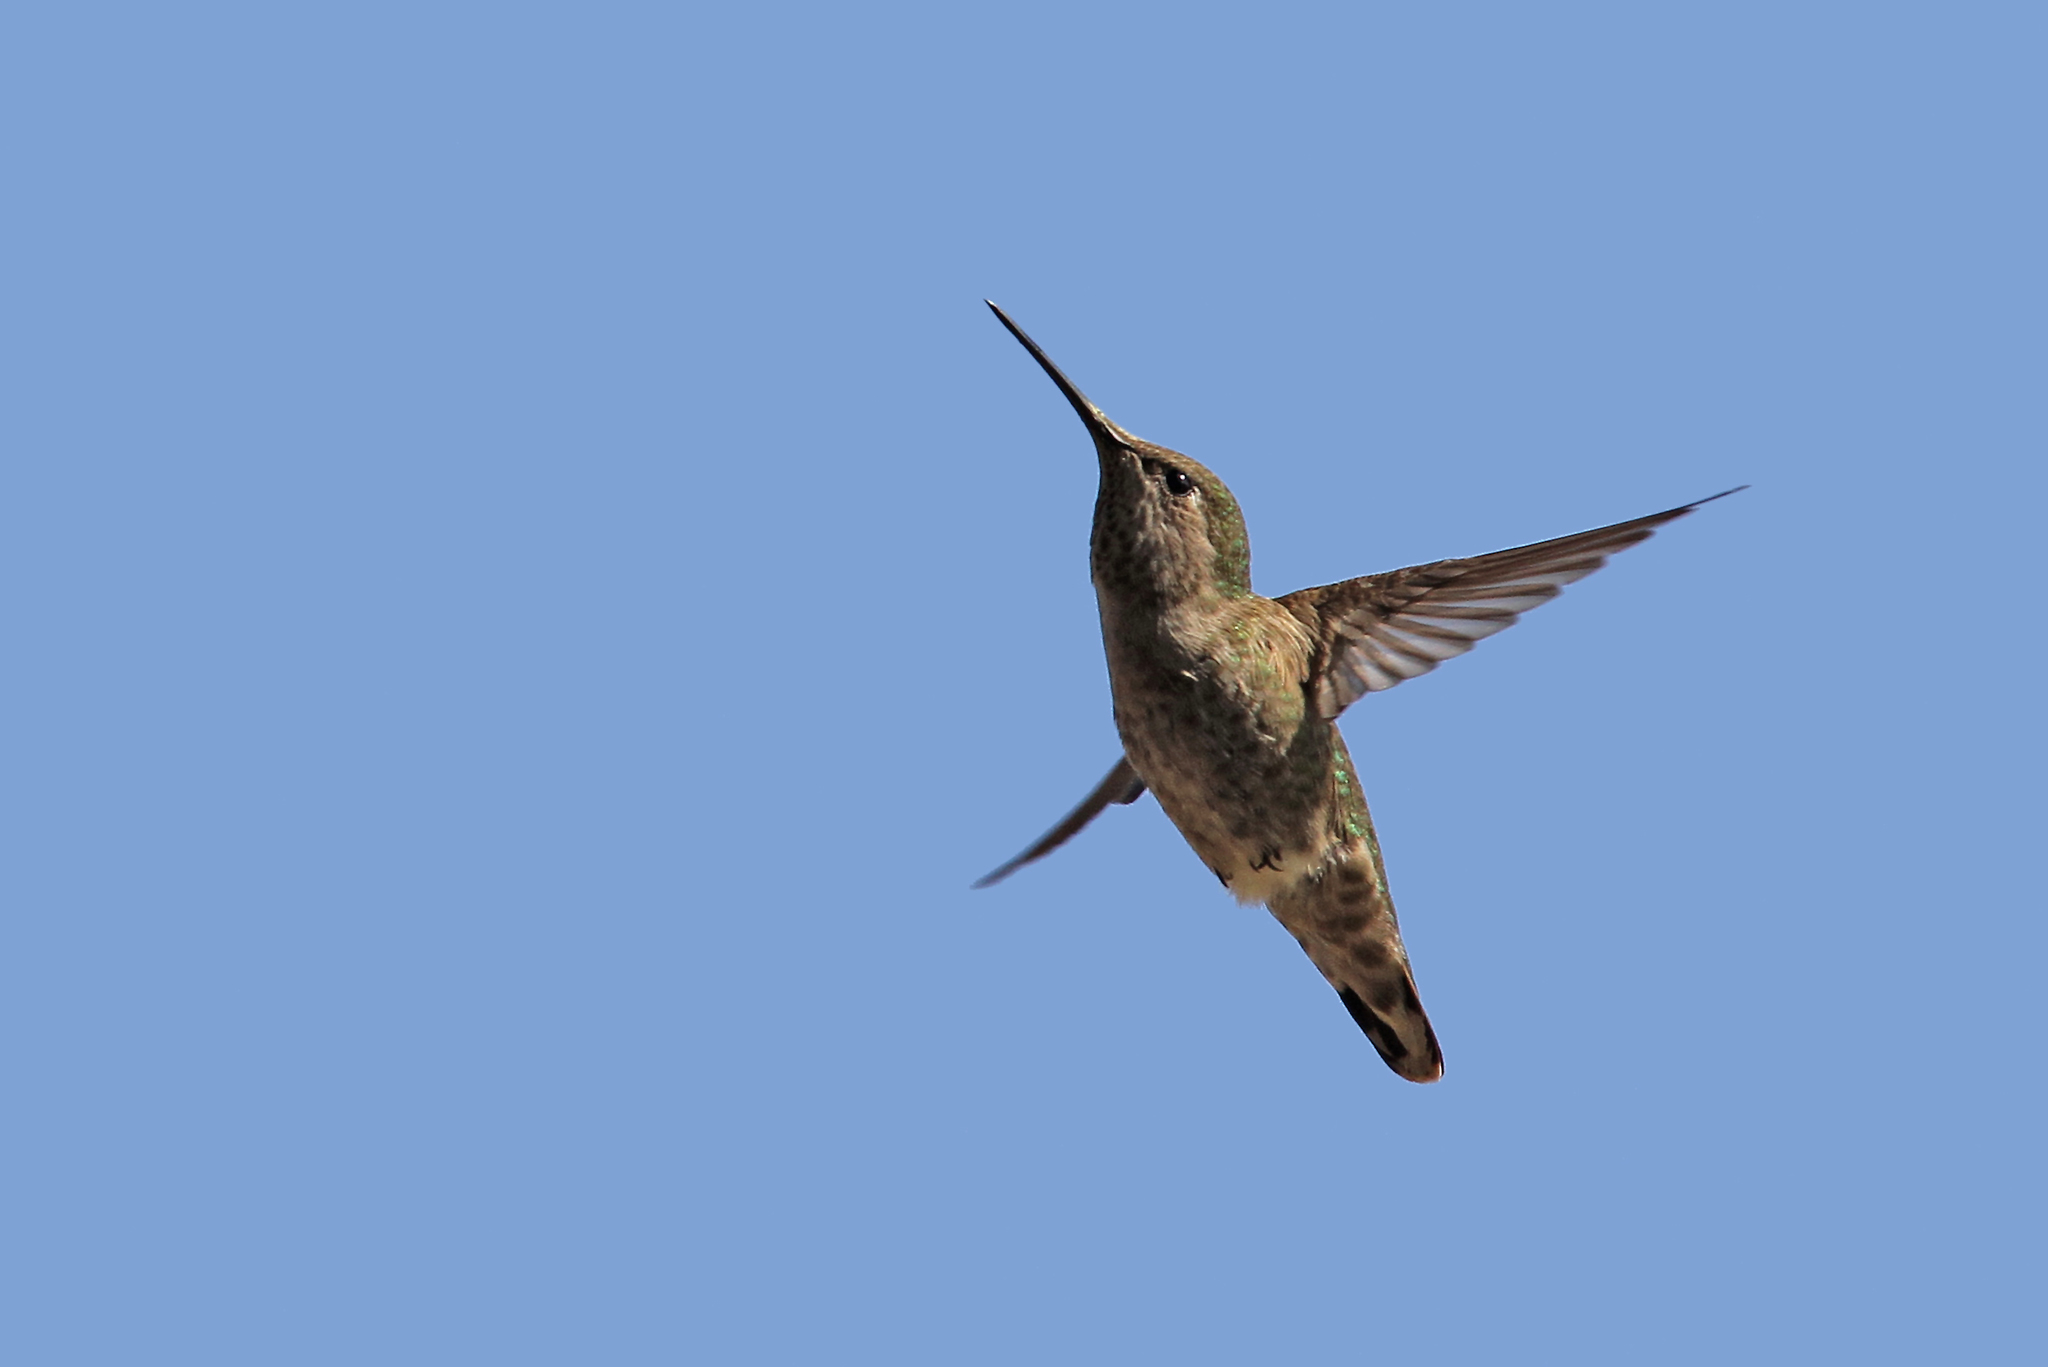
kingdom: Animalia
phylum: Chordata
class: Aves
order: Apodiformes
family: Trochilidae
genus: Calypte
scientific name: Calypte anna
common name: Anna's hummingbird
